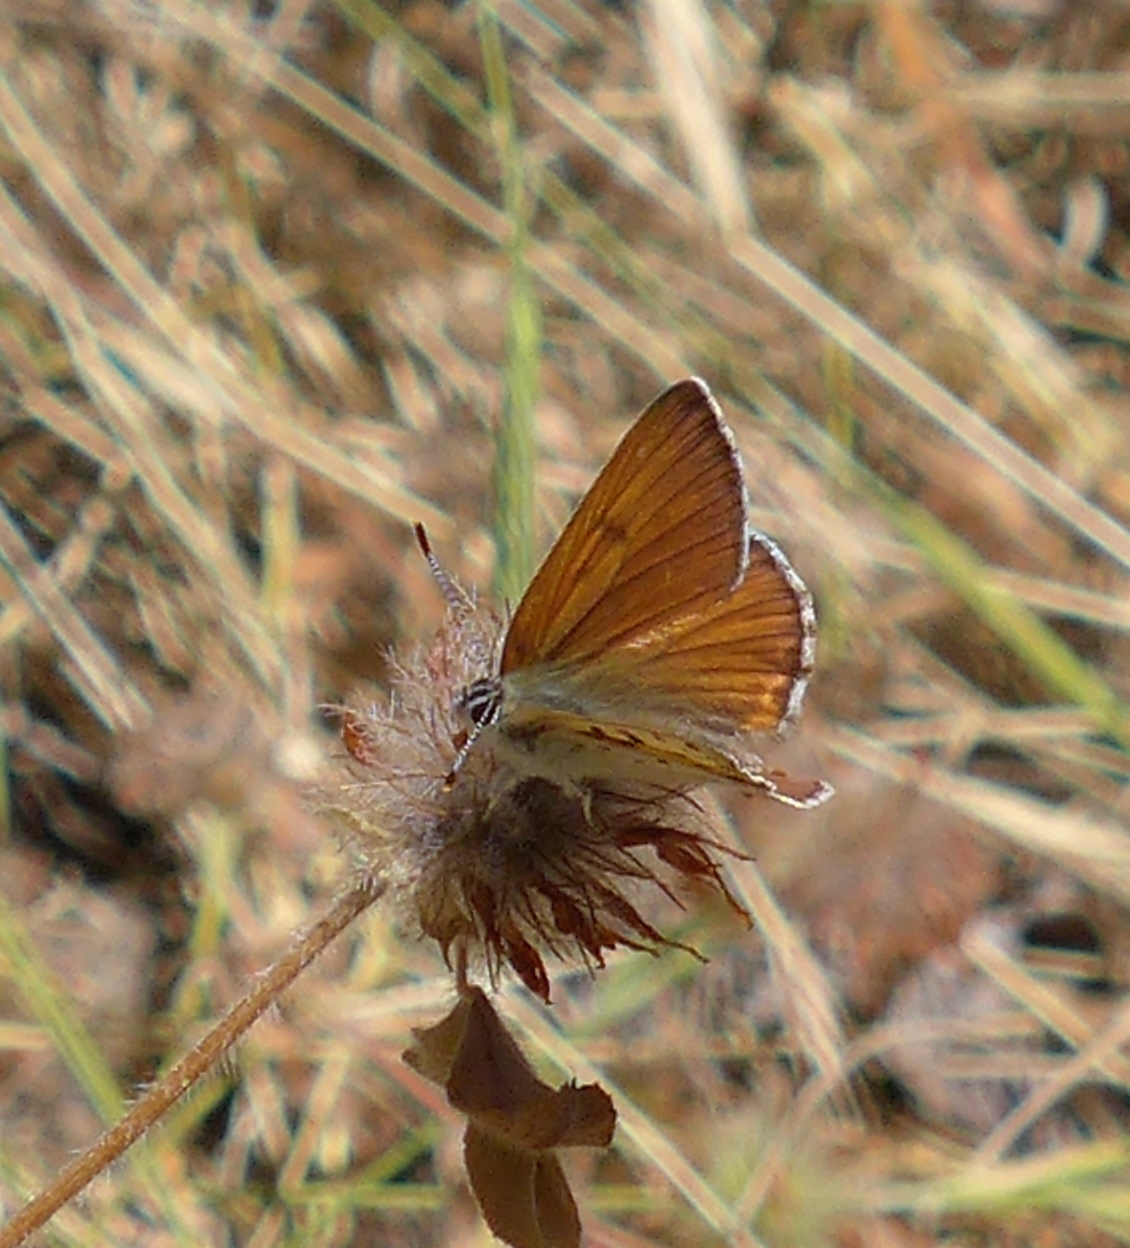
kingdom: Animalia
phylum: Arthropoda
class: Insecta
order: Lepidoptera
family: Lycaenidae
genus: Tharsalea
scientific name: Tharsalea gorgon
